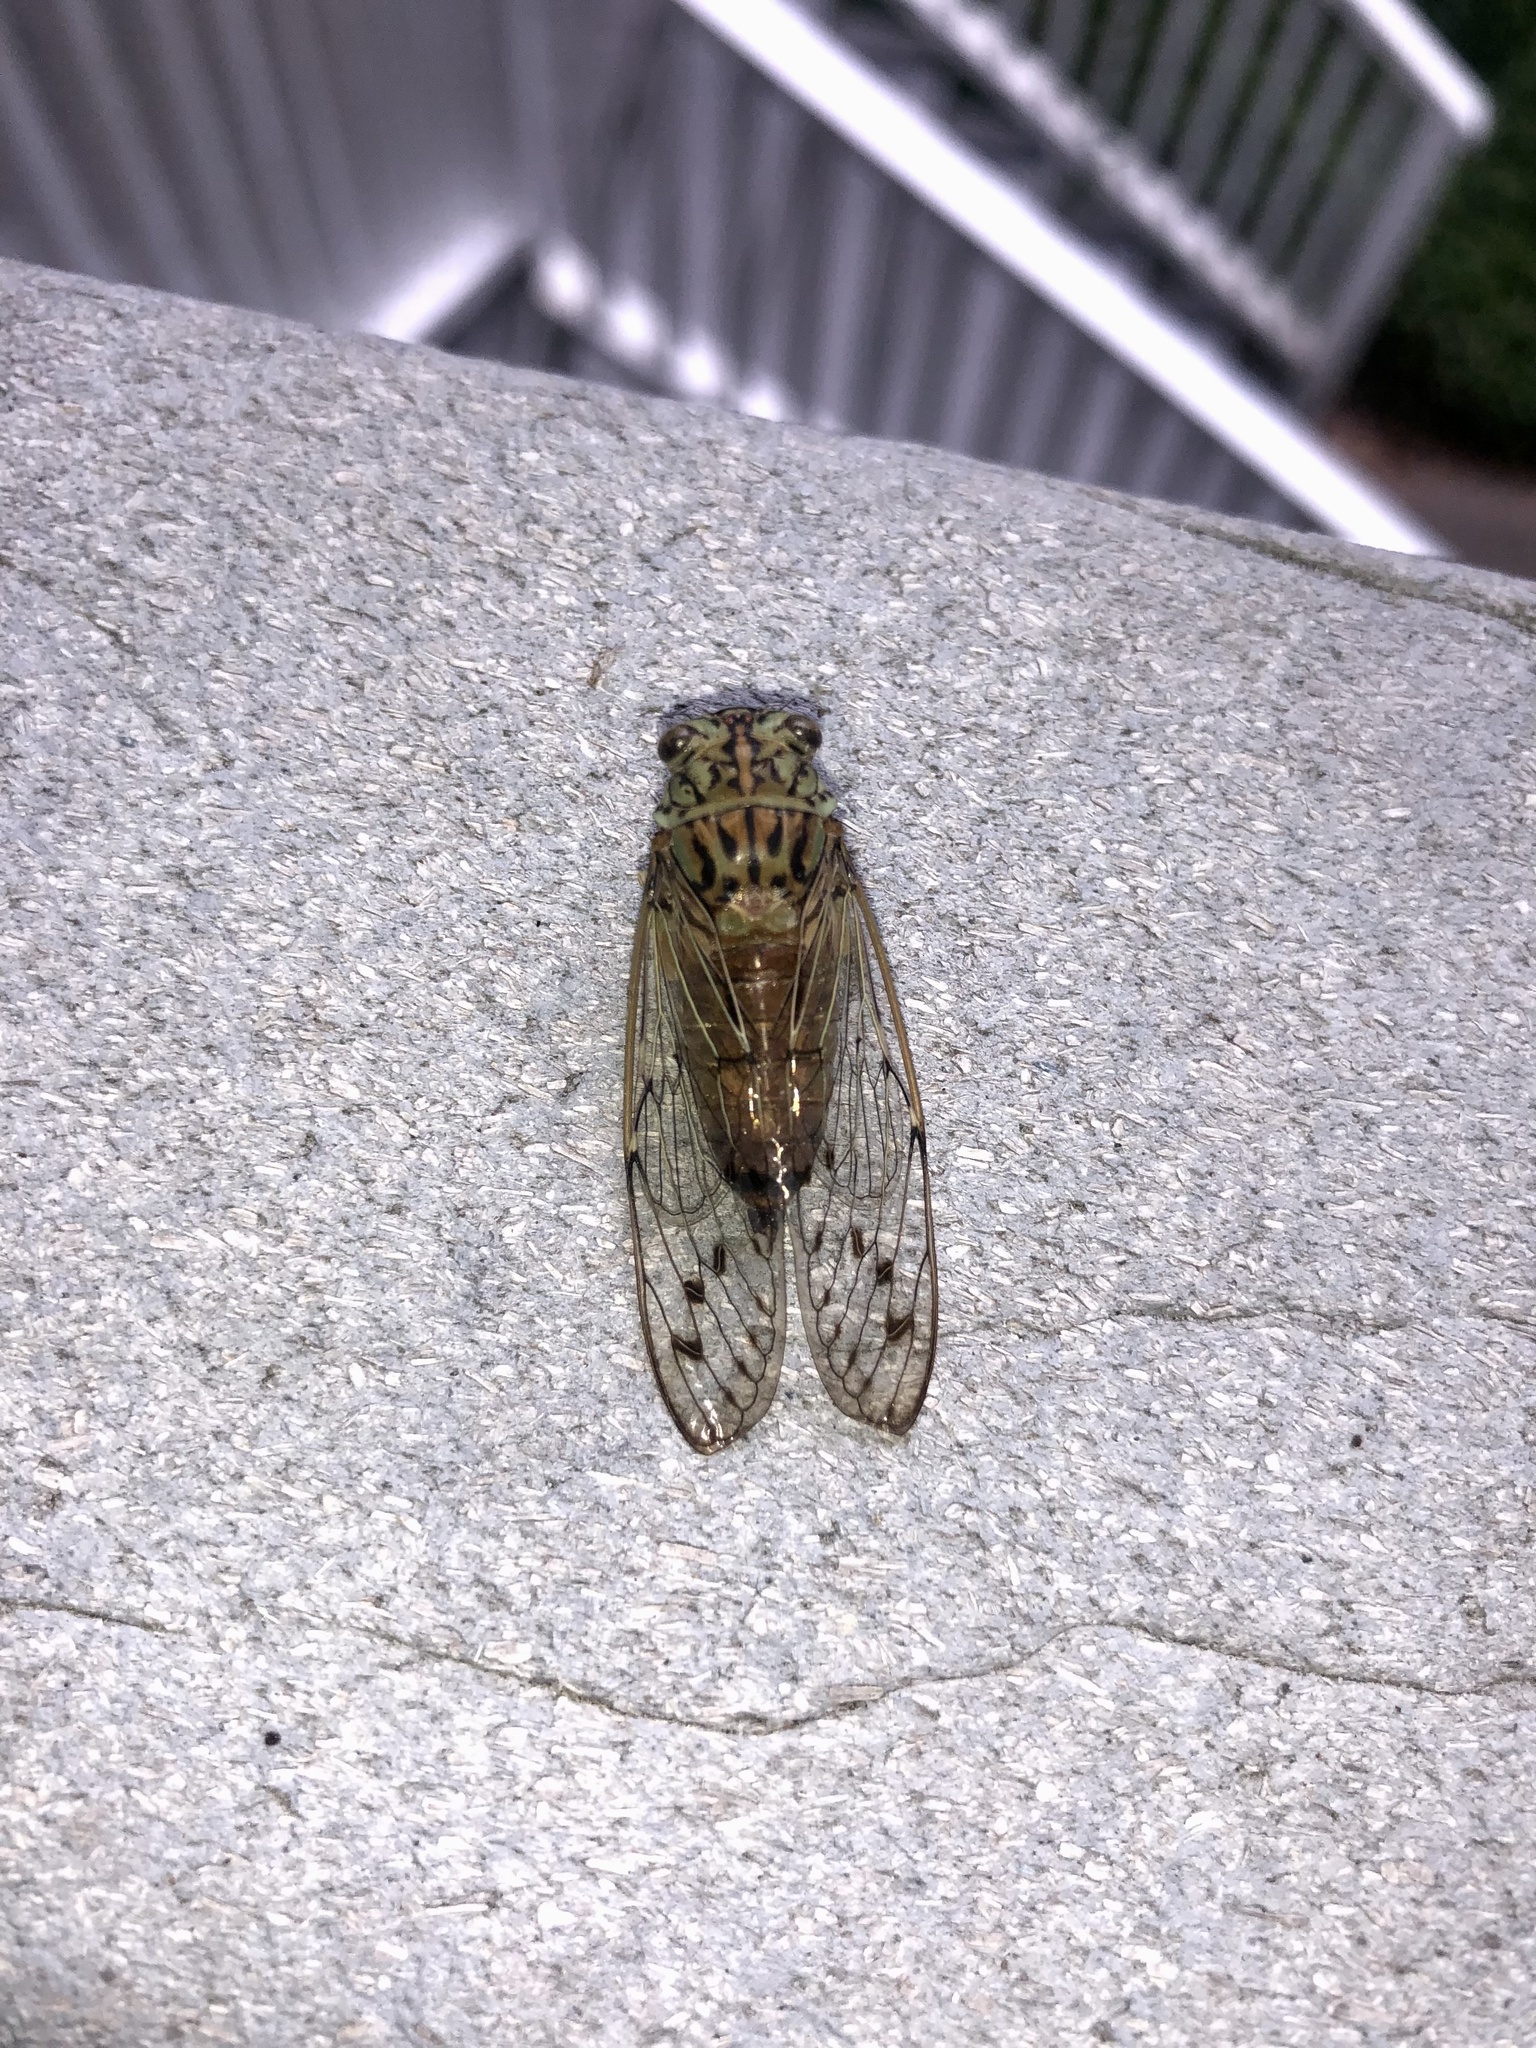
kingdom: Animalia
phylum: Arthropoda
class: Insecta
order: Hemiptera
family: Cicadidae
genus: Neocicada
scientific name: Neocicada hieroglyphica
